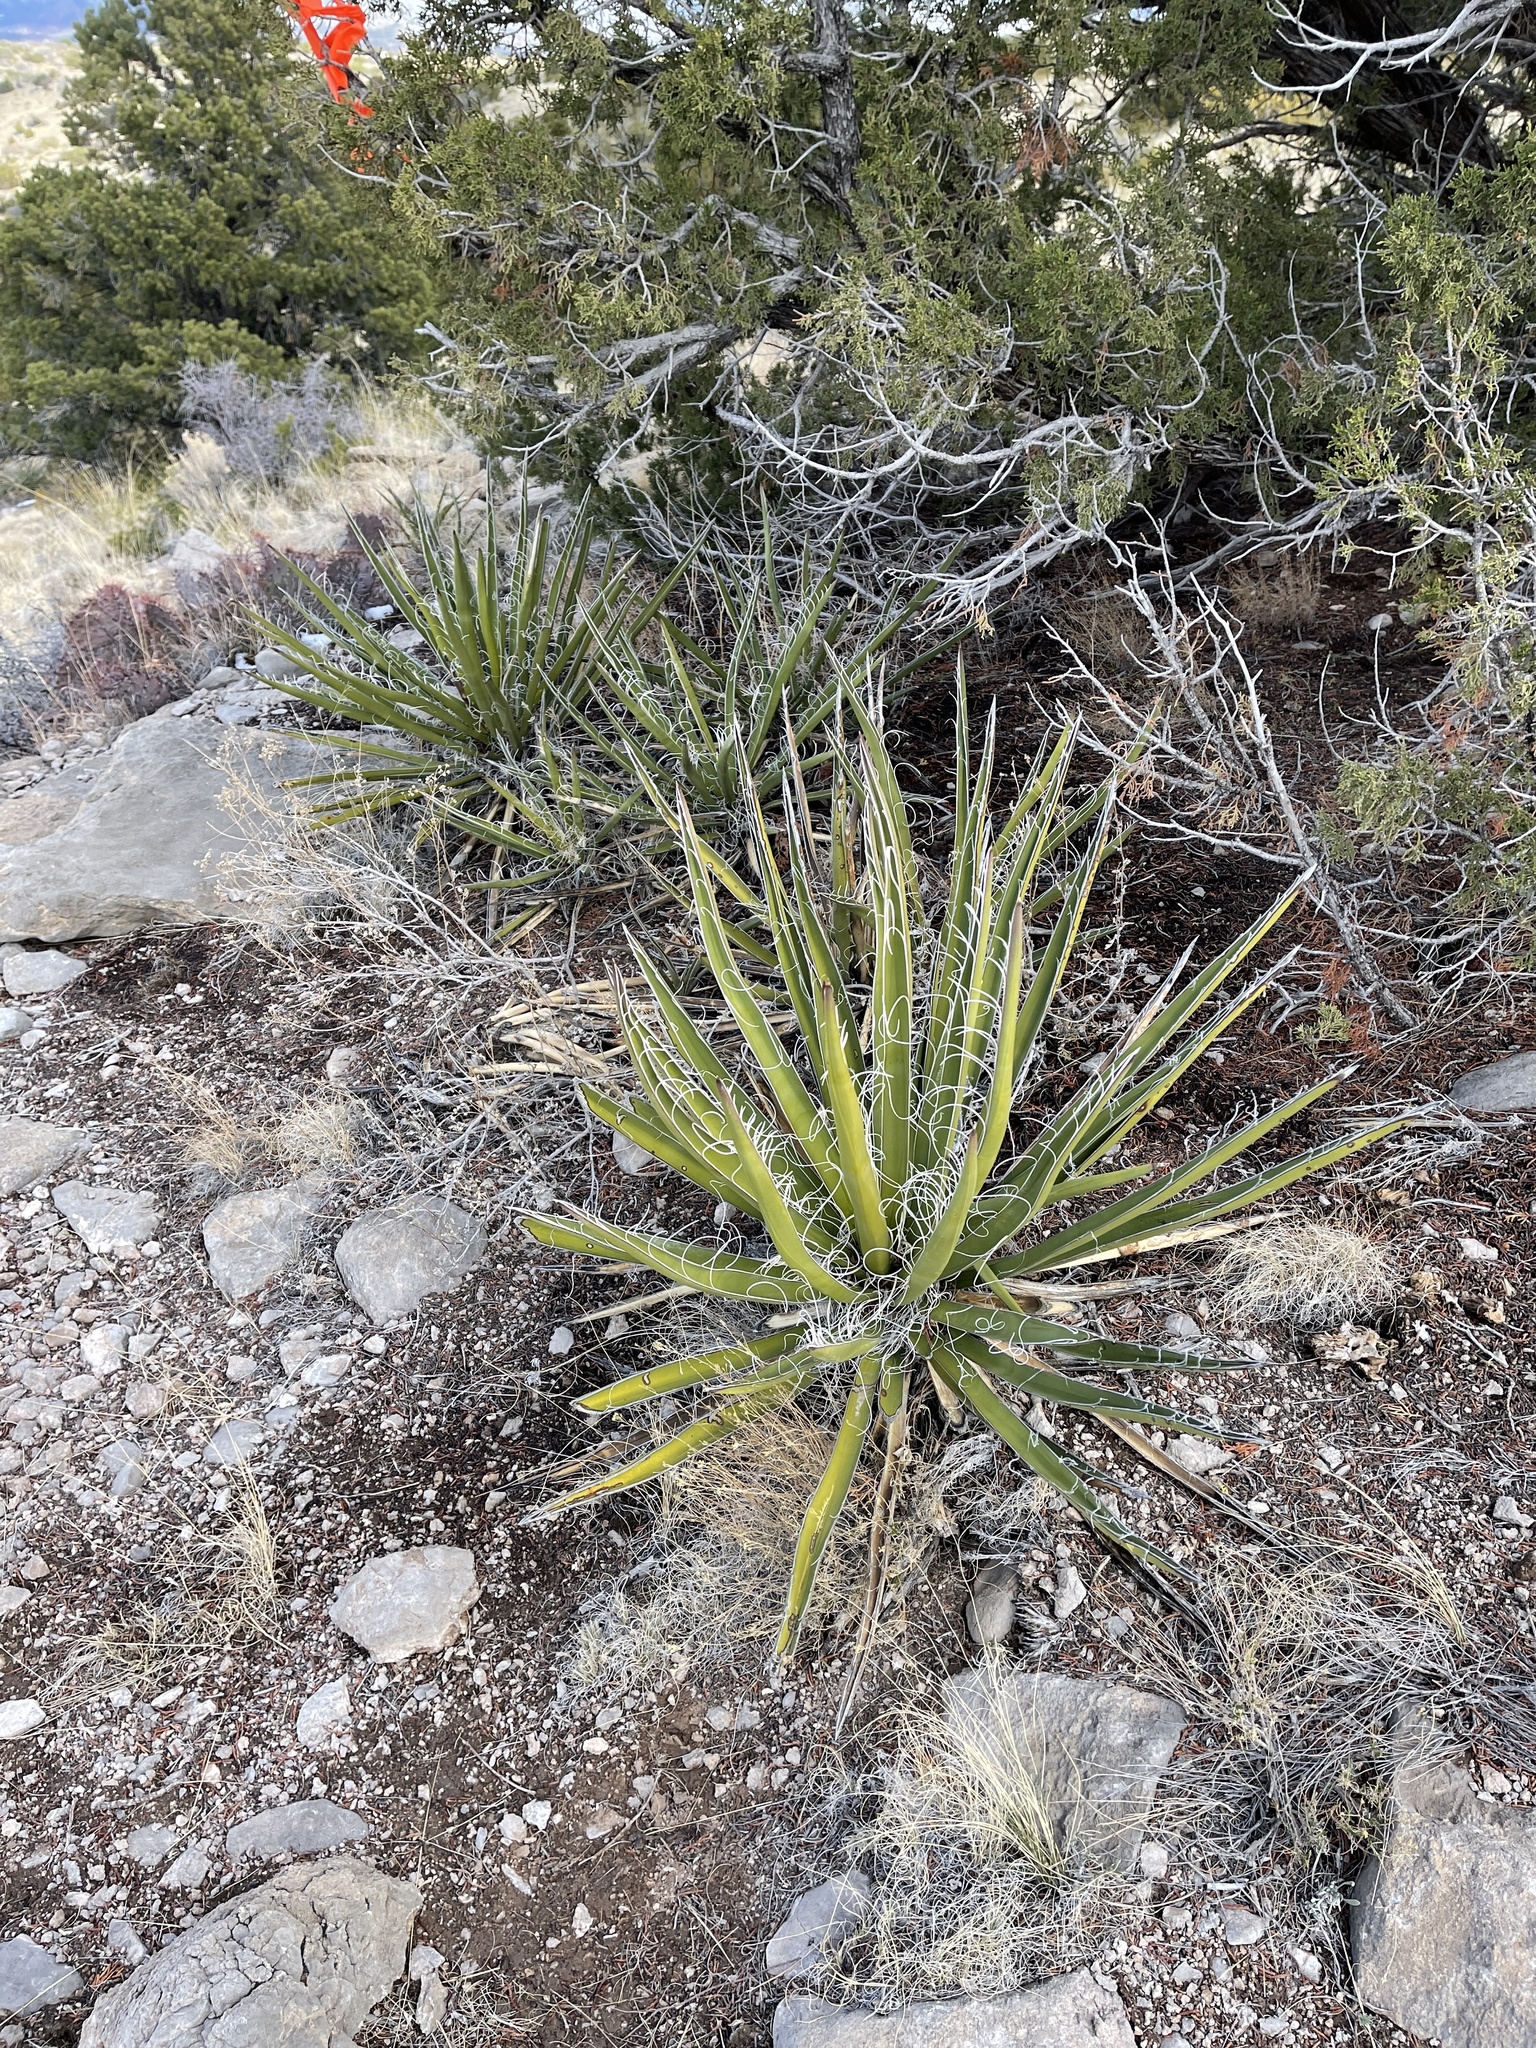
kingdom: Plantae
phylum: Tracheophyta
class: Liliopsida
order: Asparagales
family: Asparagaceae
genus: Yucca
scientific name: Yucca baccata
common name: Banana yucca
